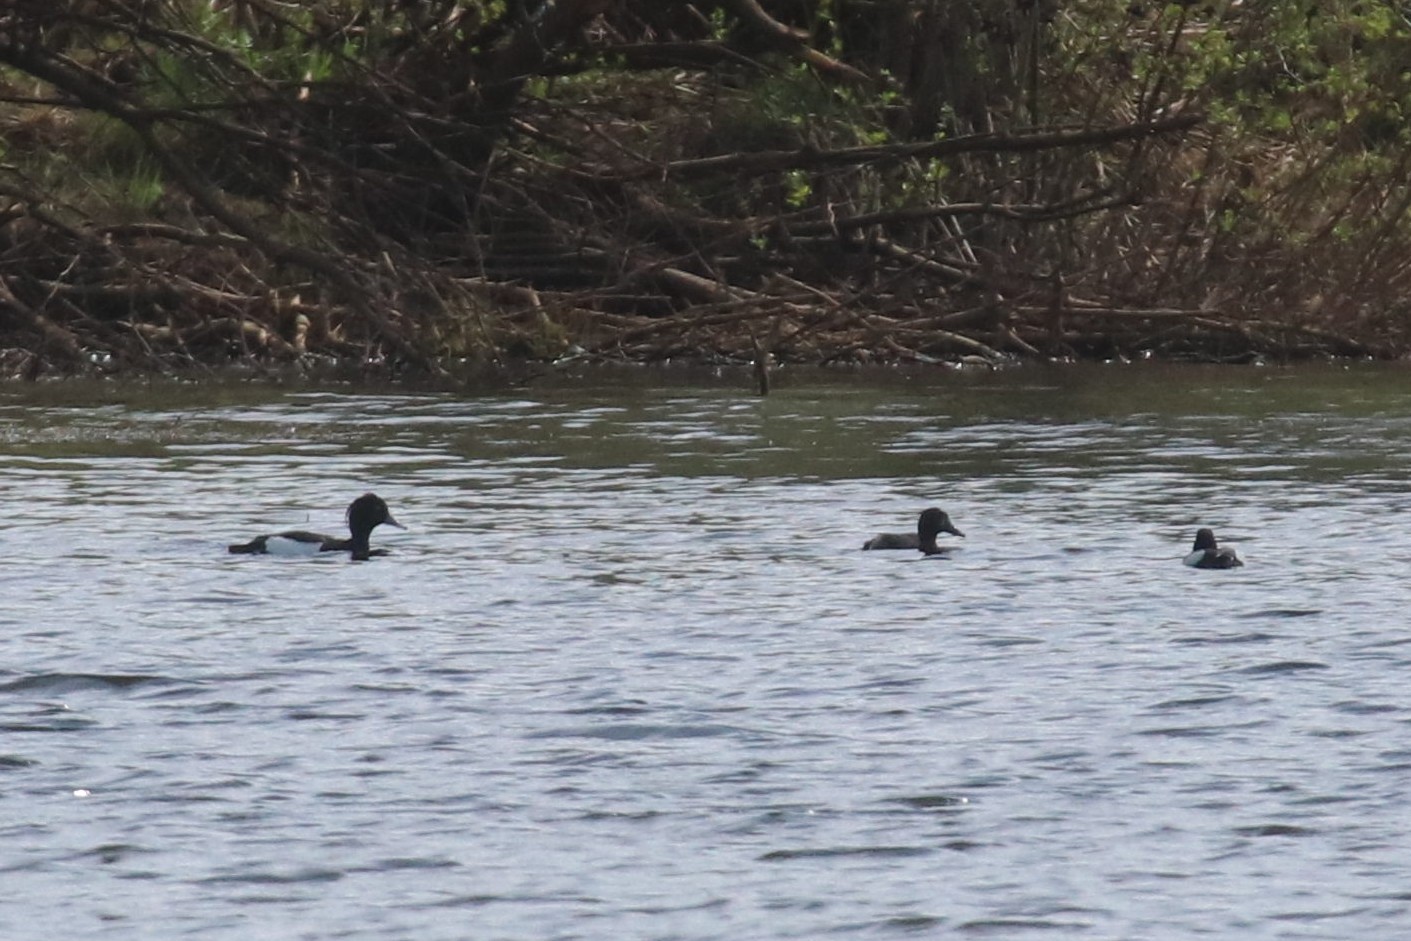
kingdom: Animalia
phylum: Chordata
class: Aves
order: Anseriformes
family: Anatidae
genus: Aythya
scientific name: Aythya fuligula
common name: Tufted duck
